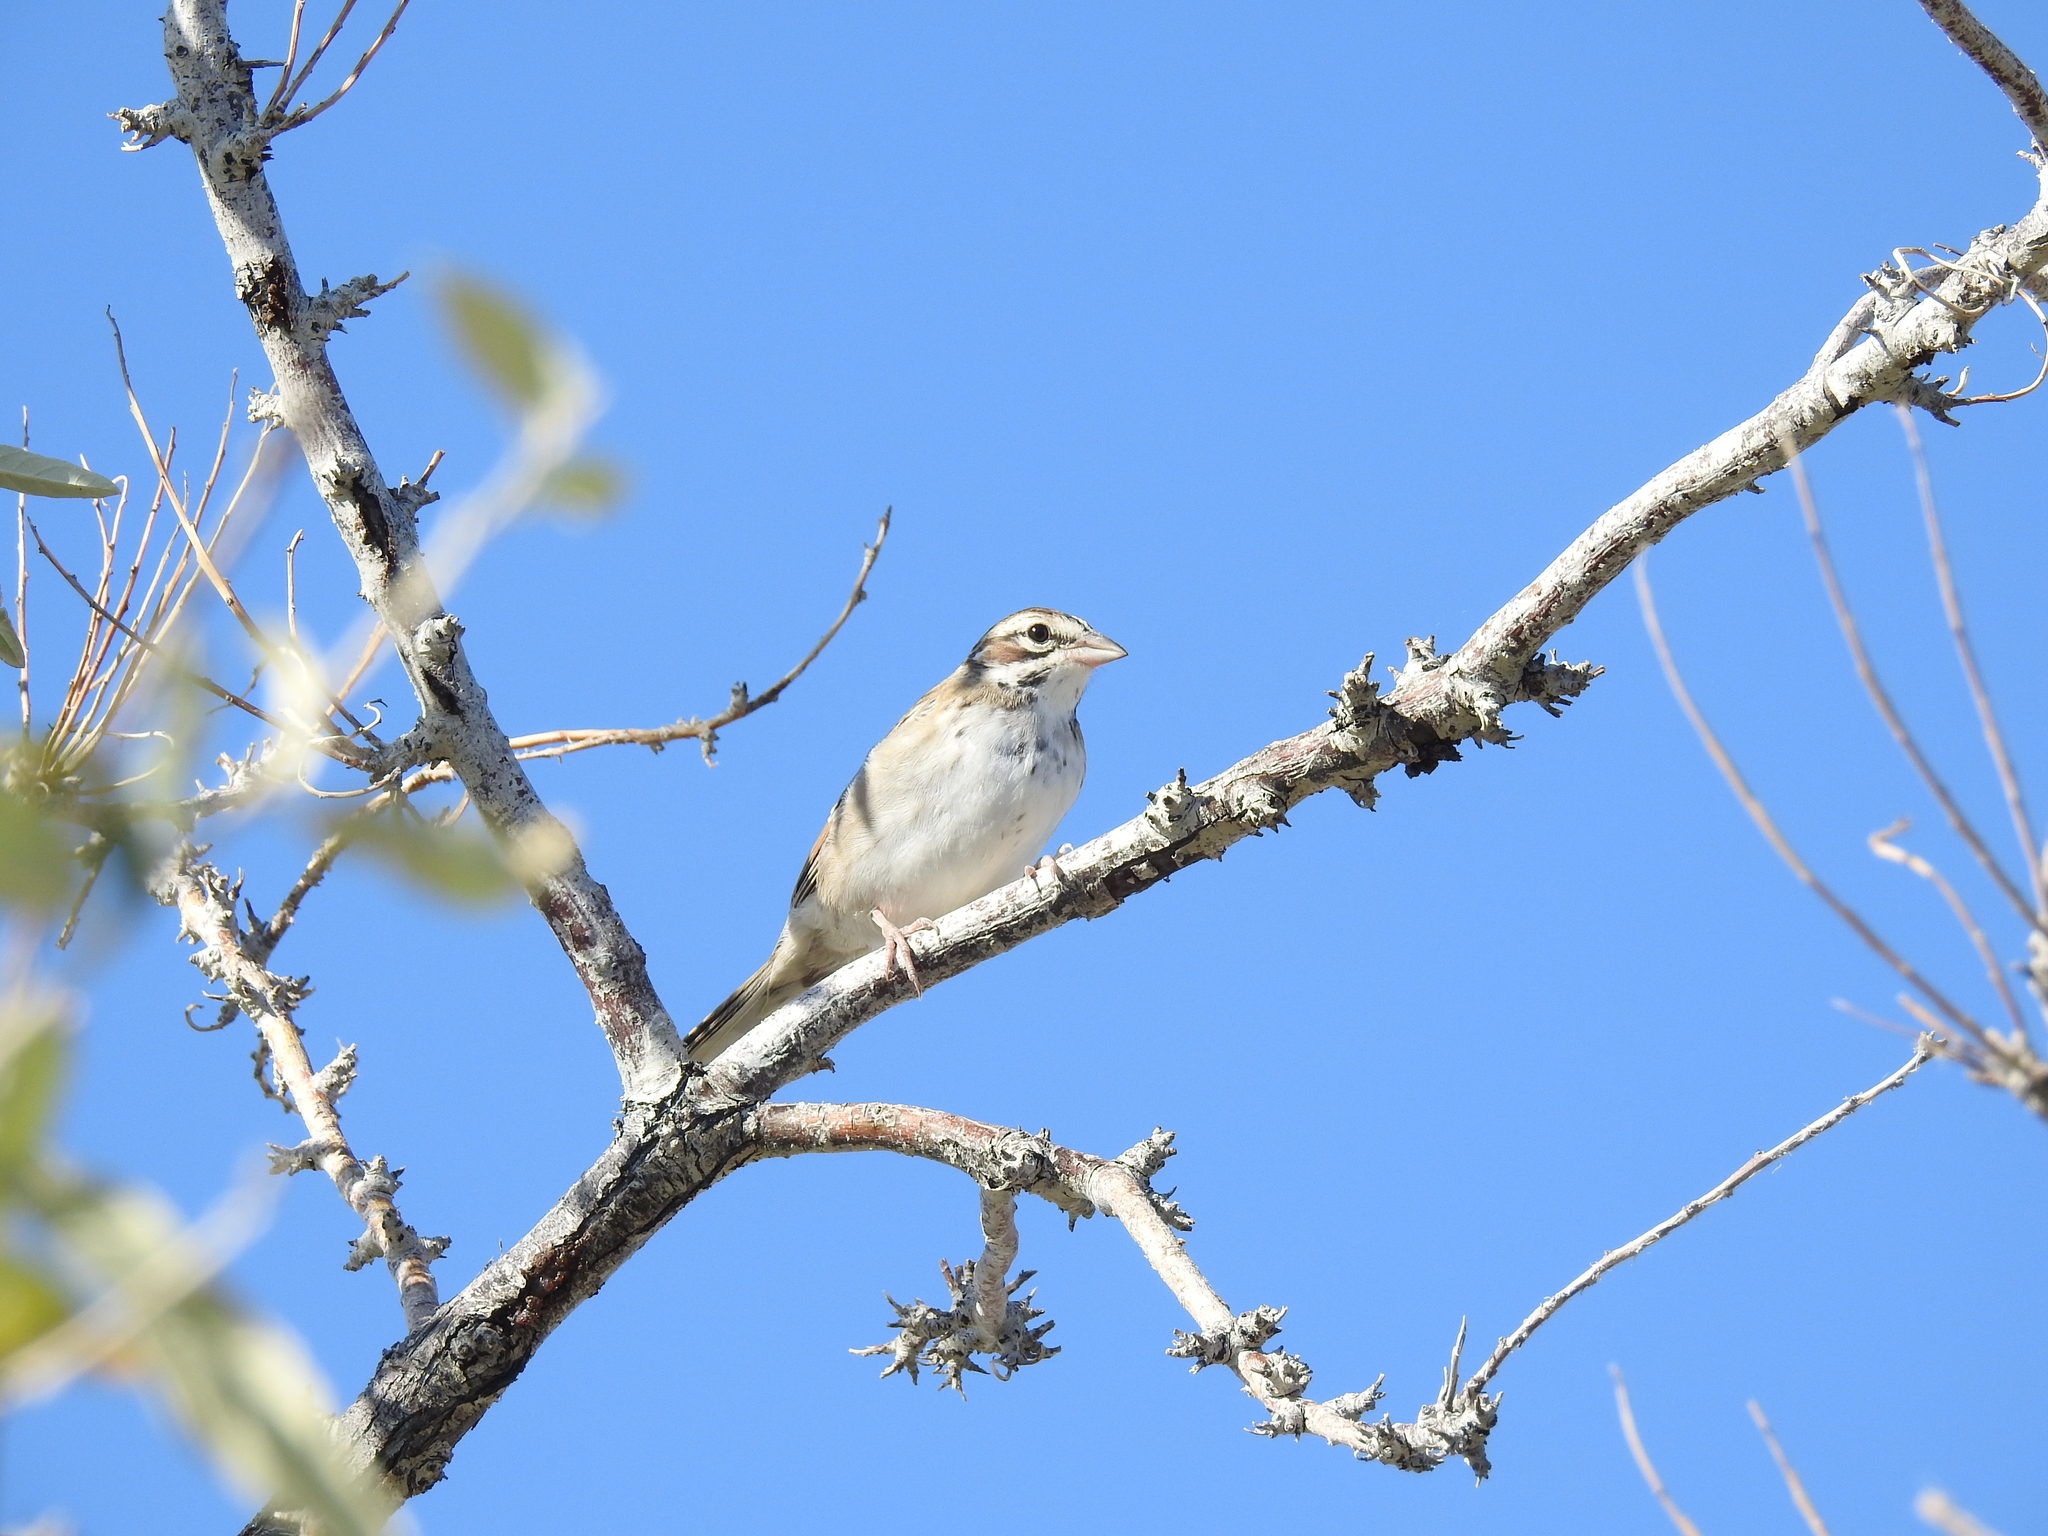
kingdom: Animalia
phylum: Chordata
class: Aves
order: Passeriformes
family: Passerellidae
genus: Chondestes
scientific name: Chondestes grammacus
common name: Lark sparrow
